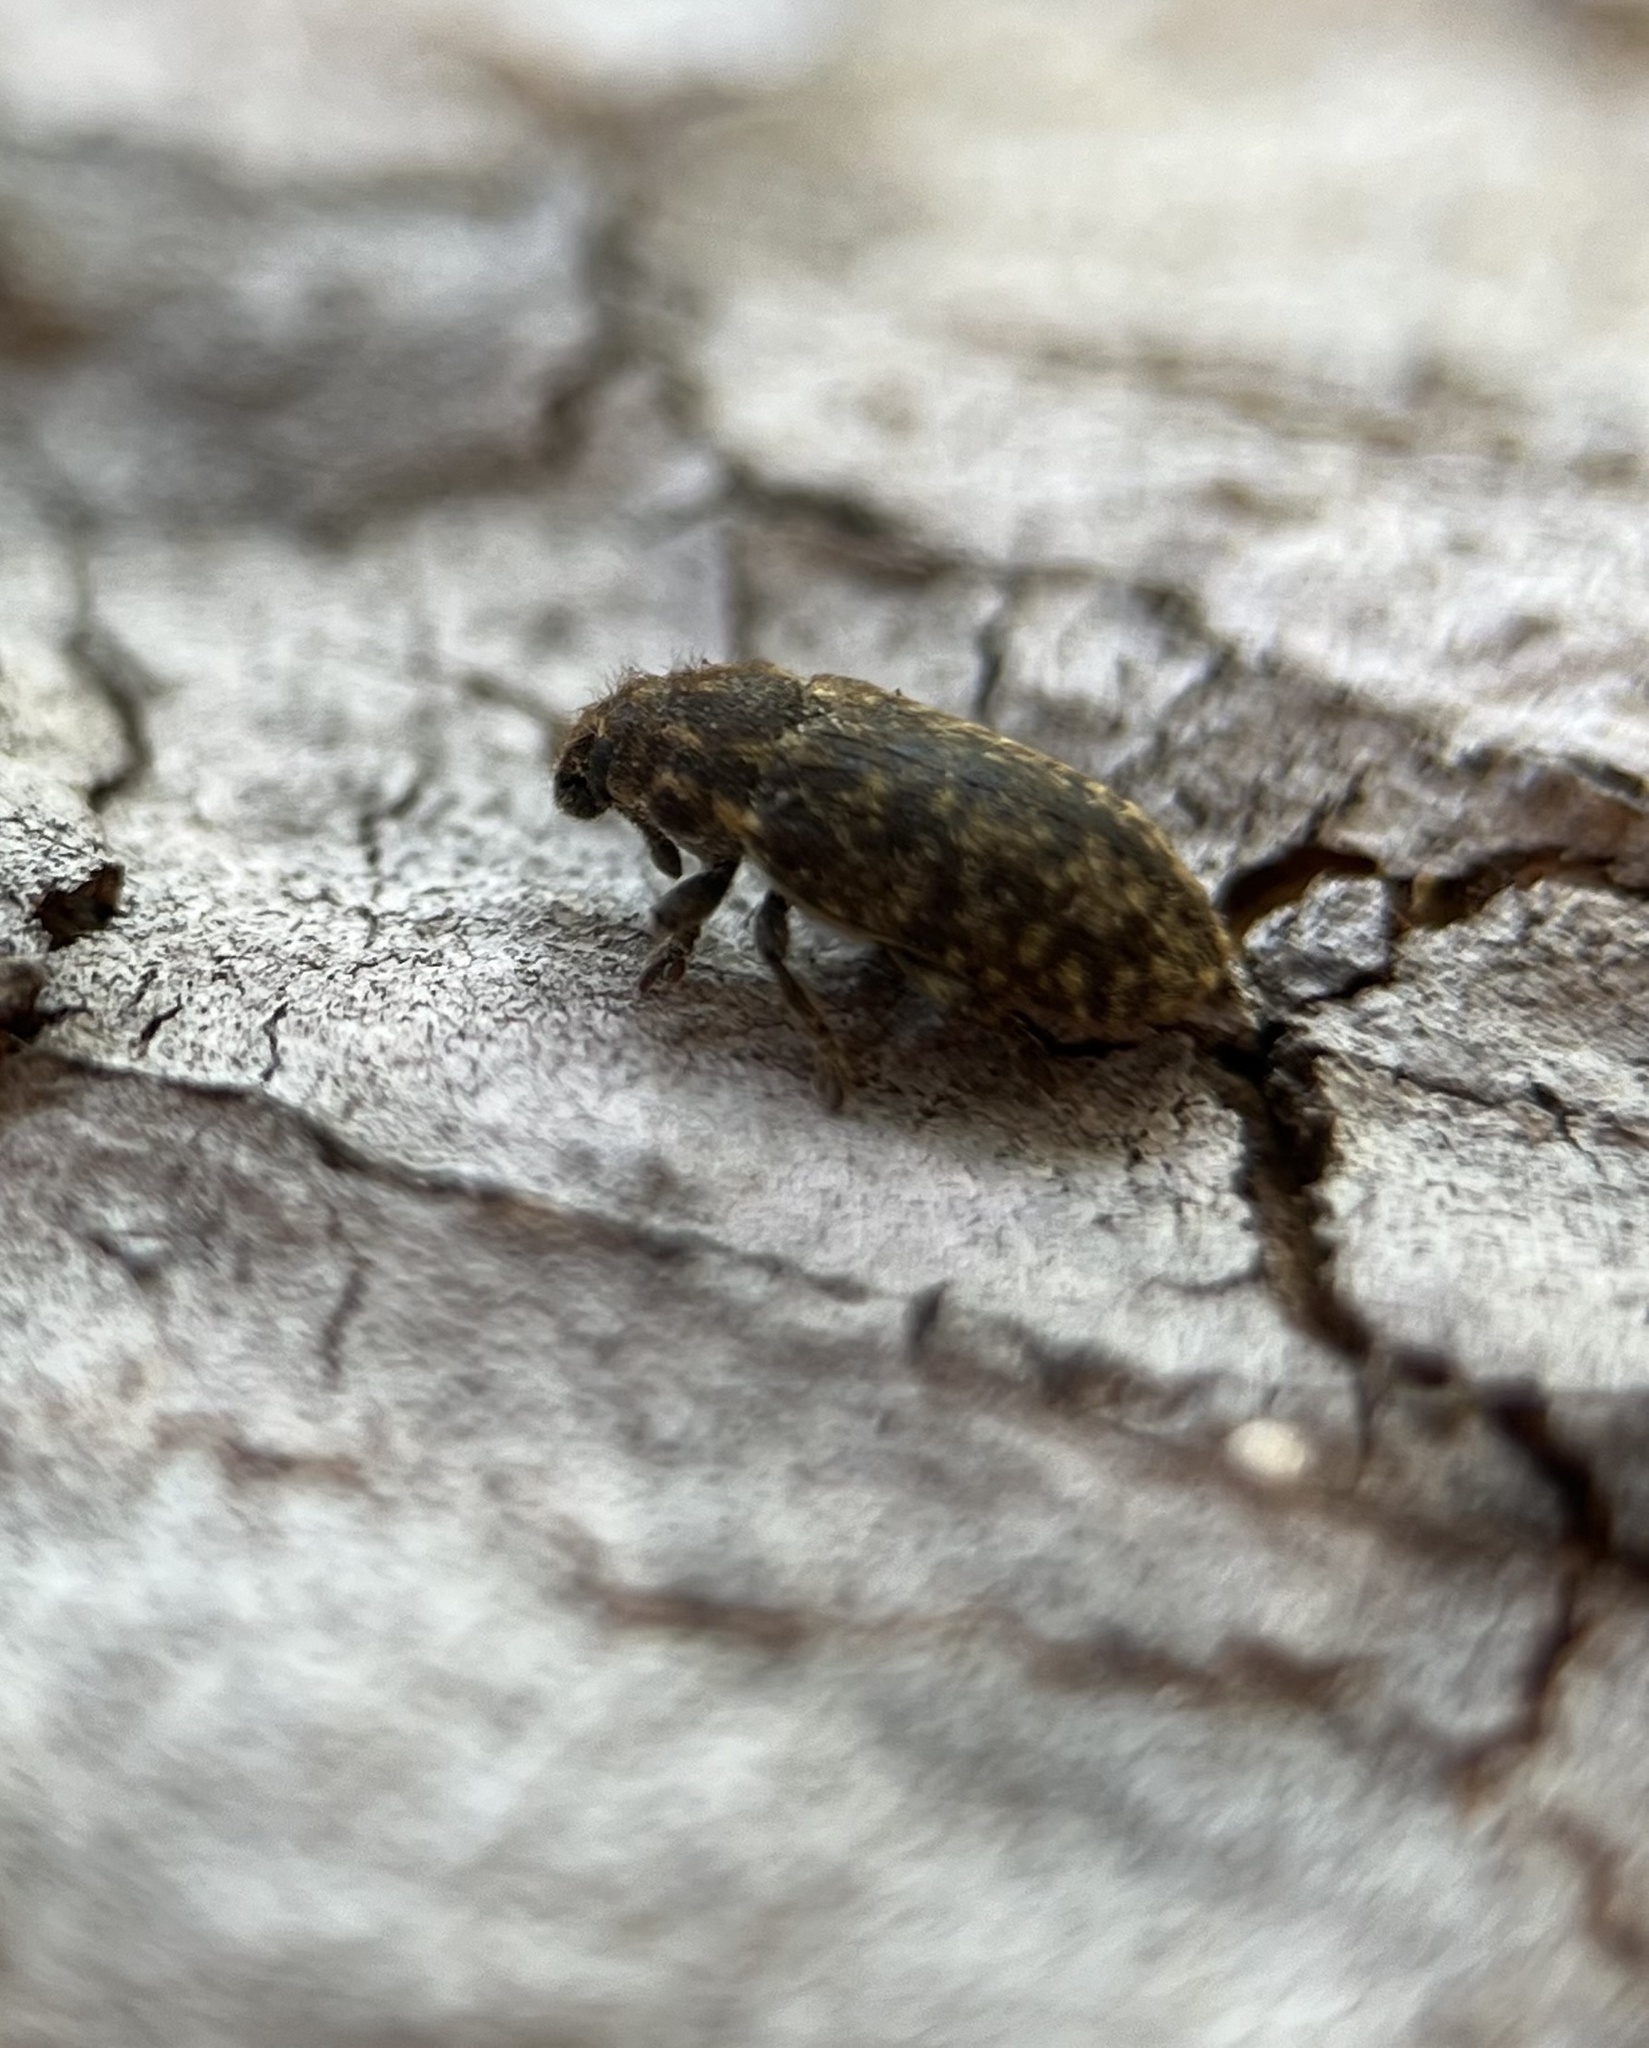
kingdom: Animalia
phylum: Arthropoda
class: Insecta
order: Coleoptera
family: Curculionidae
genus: Rhinocyllus
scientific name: Rhinocyllus conicus
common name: Weevil
